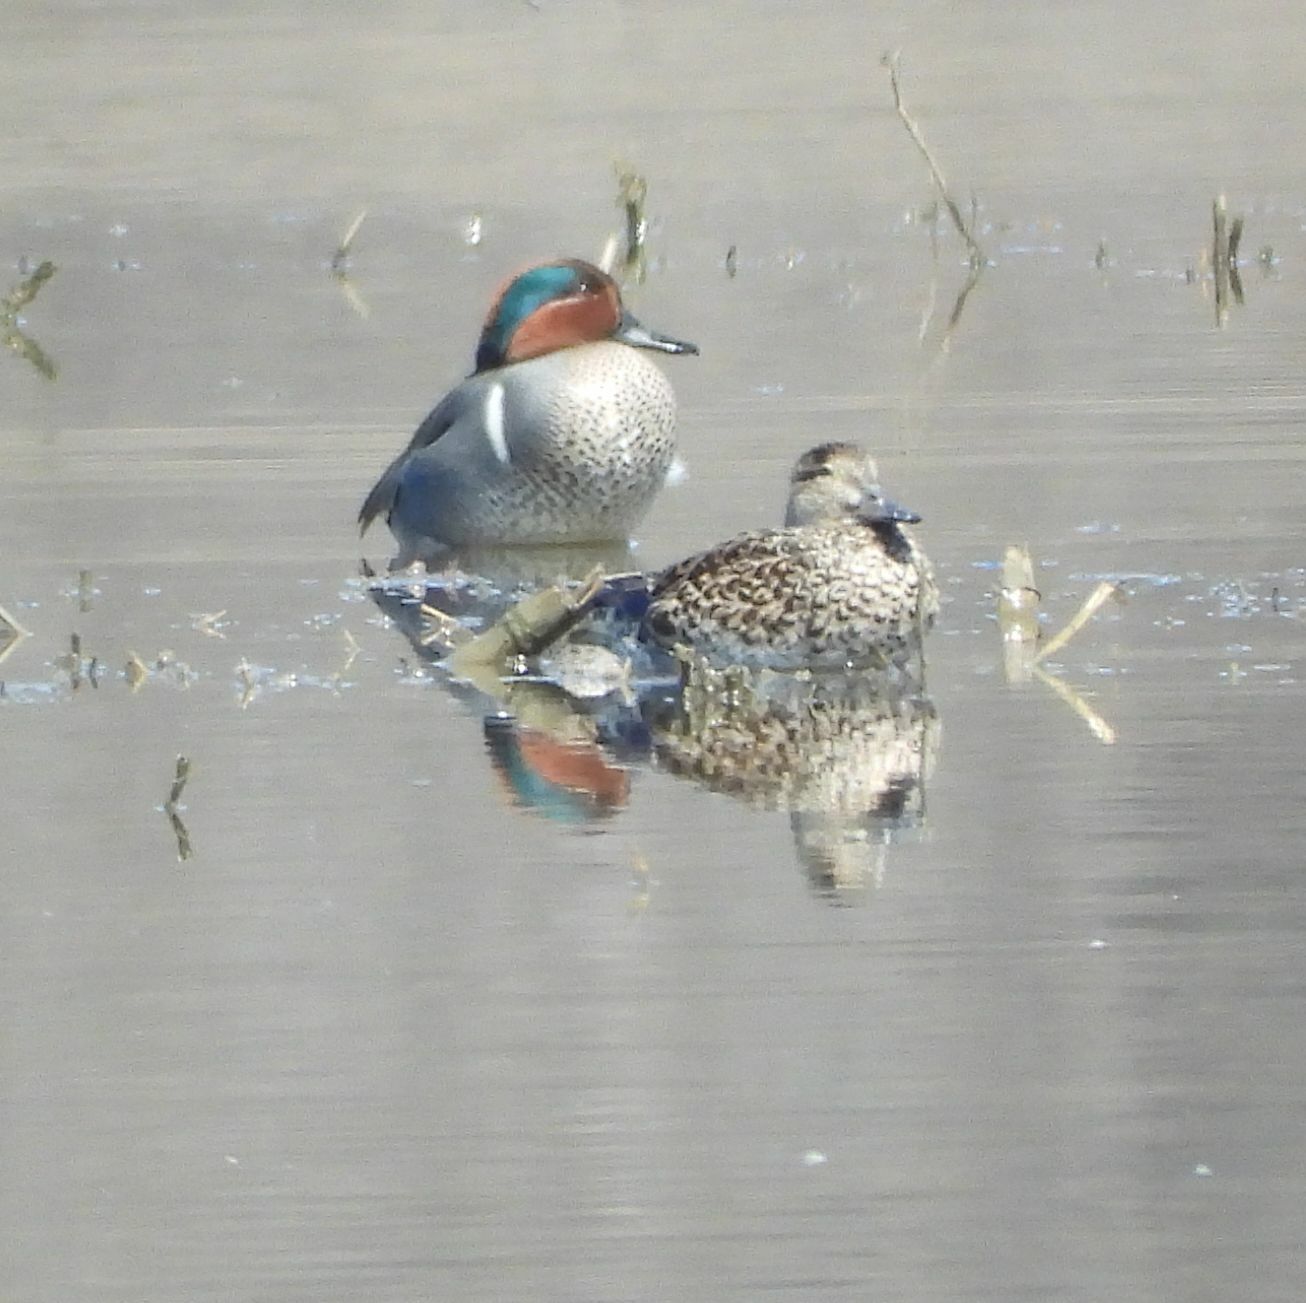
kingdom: Animalia
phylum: Chordata
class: Aves
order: Anseriformes
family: Anatidae
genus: Anas
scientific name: Anas crecca
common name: Eurasian teal
